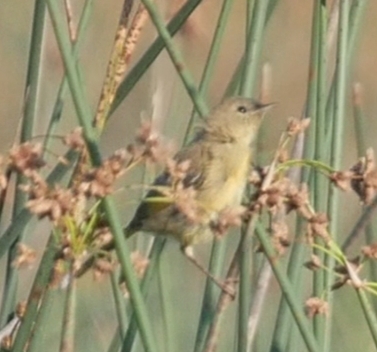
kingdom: Animalia
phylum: Chordata
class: Aves
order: Passeriformes
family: Parulidae
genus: Geothlypis
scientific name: Geothlypis trichas
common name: Common yellowthroat
